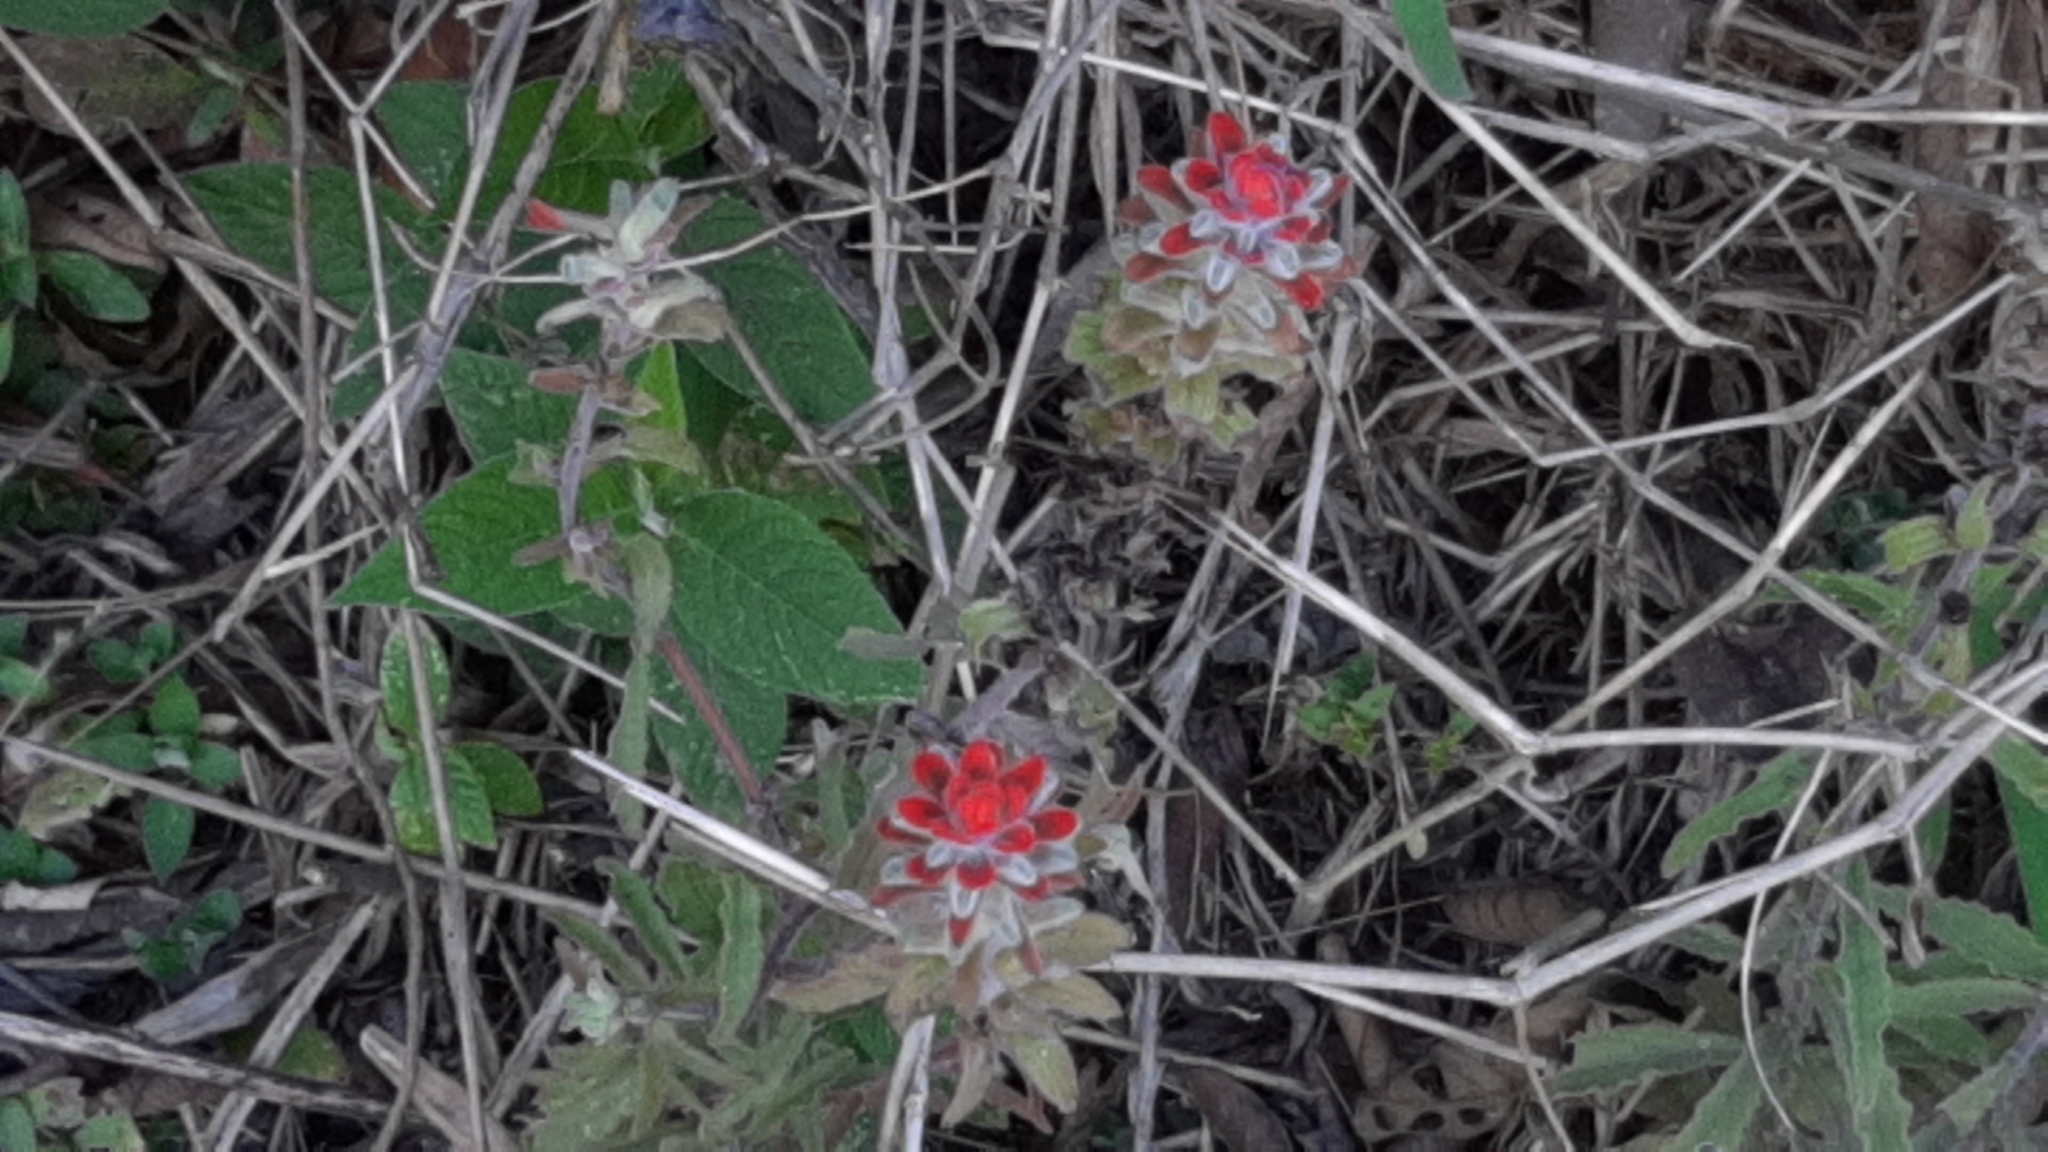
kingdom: Plantae
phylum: Tracheophyta
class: Magnoliopsida
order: Lamiales
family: Orobanchaceae
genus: Castilleja
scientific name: Castilleja arvensis
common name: Indian paintbrush
